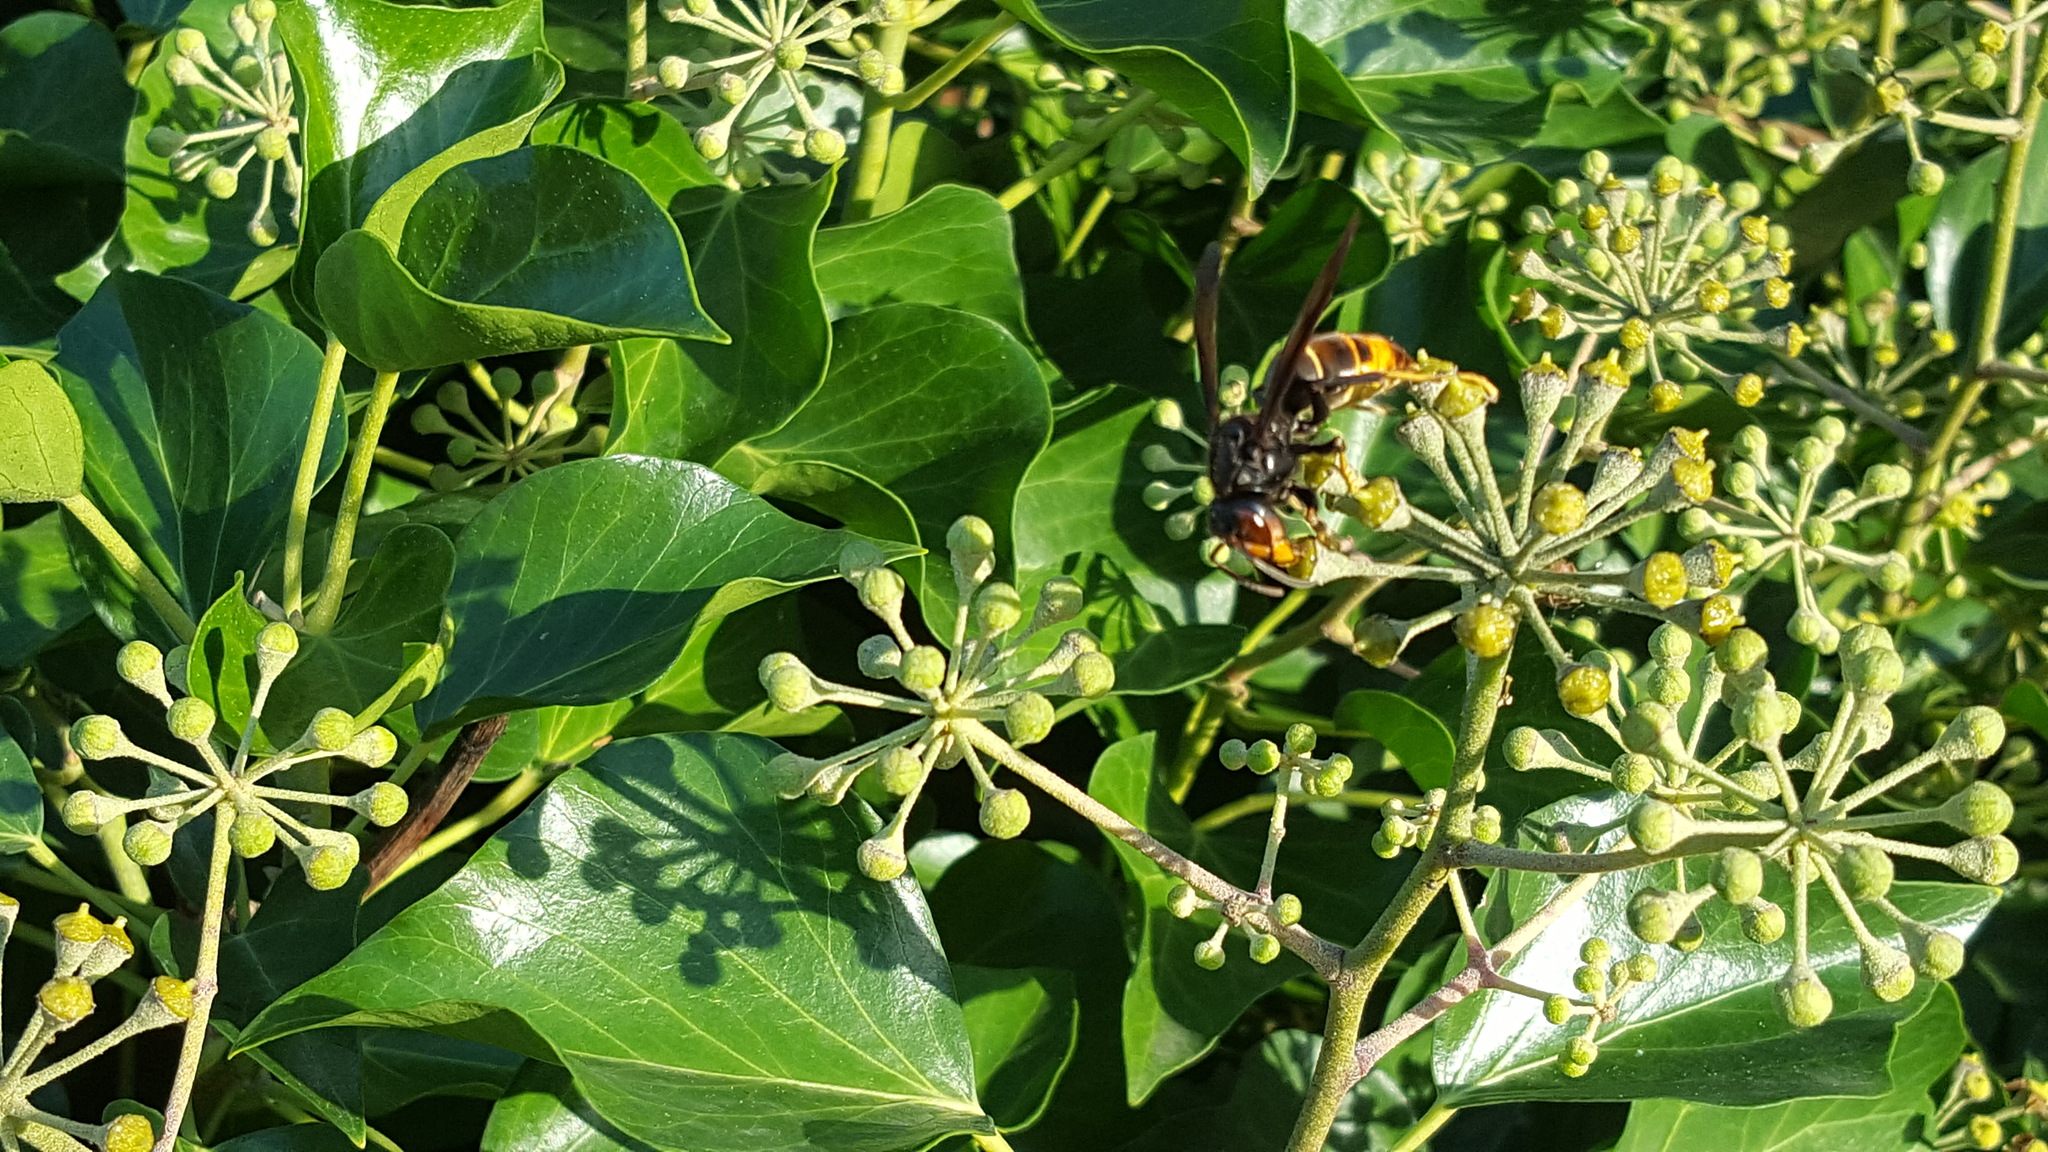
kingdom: Animalia
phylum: Arthropoda
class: Insecta
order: Hymenoptera
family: Vespidae
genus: Vespa
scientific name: Vespa velutina
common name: Asian hornet
